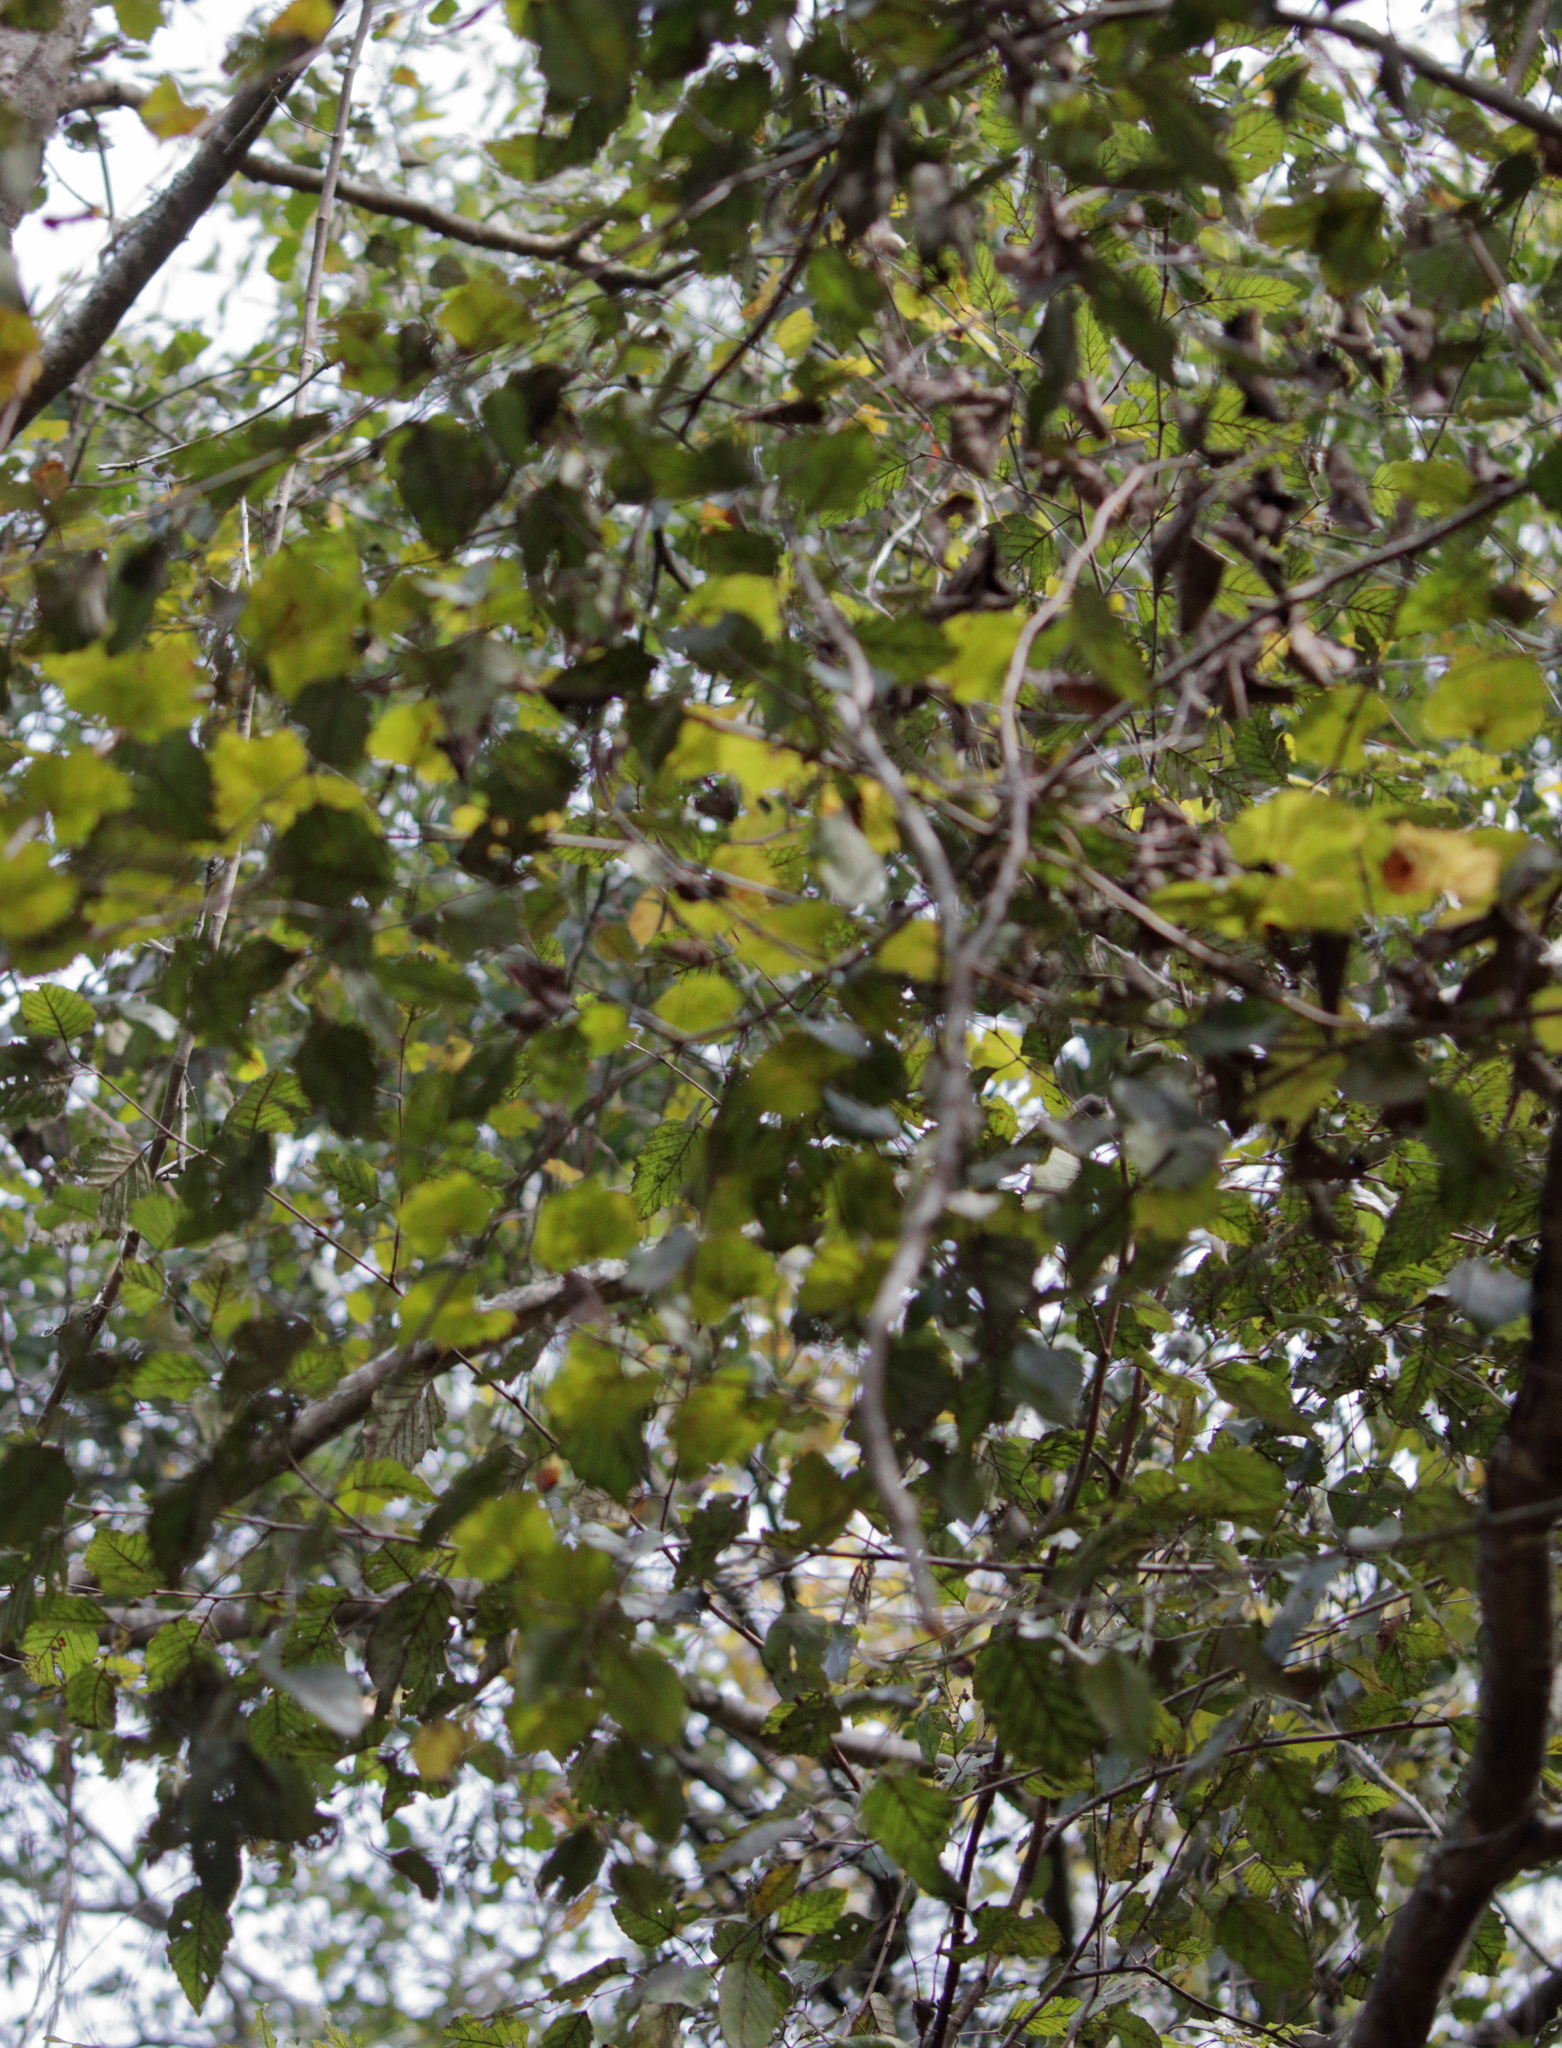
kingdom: Plantae
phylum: Tracheophyta
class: Magnoliopsida
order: Fagales
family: Betulaceae
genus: Betula
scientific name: Betula nigra
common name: Black birch
